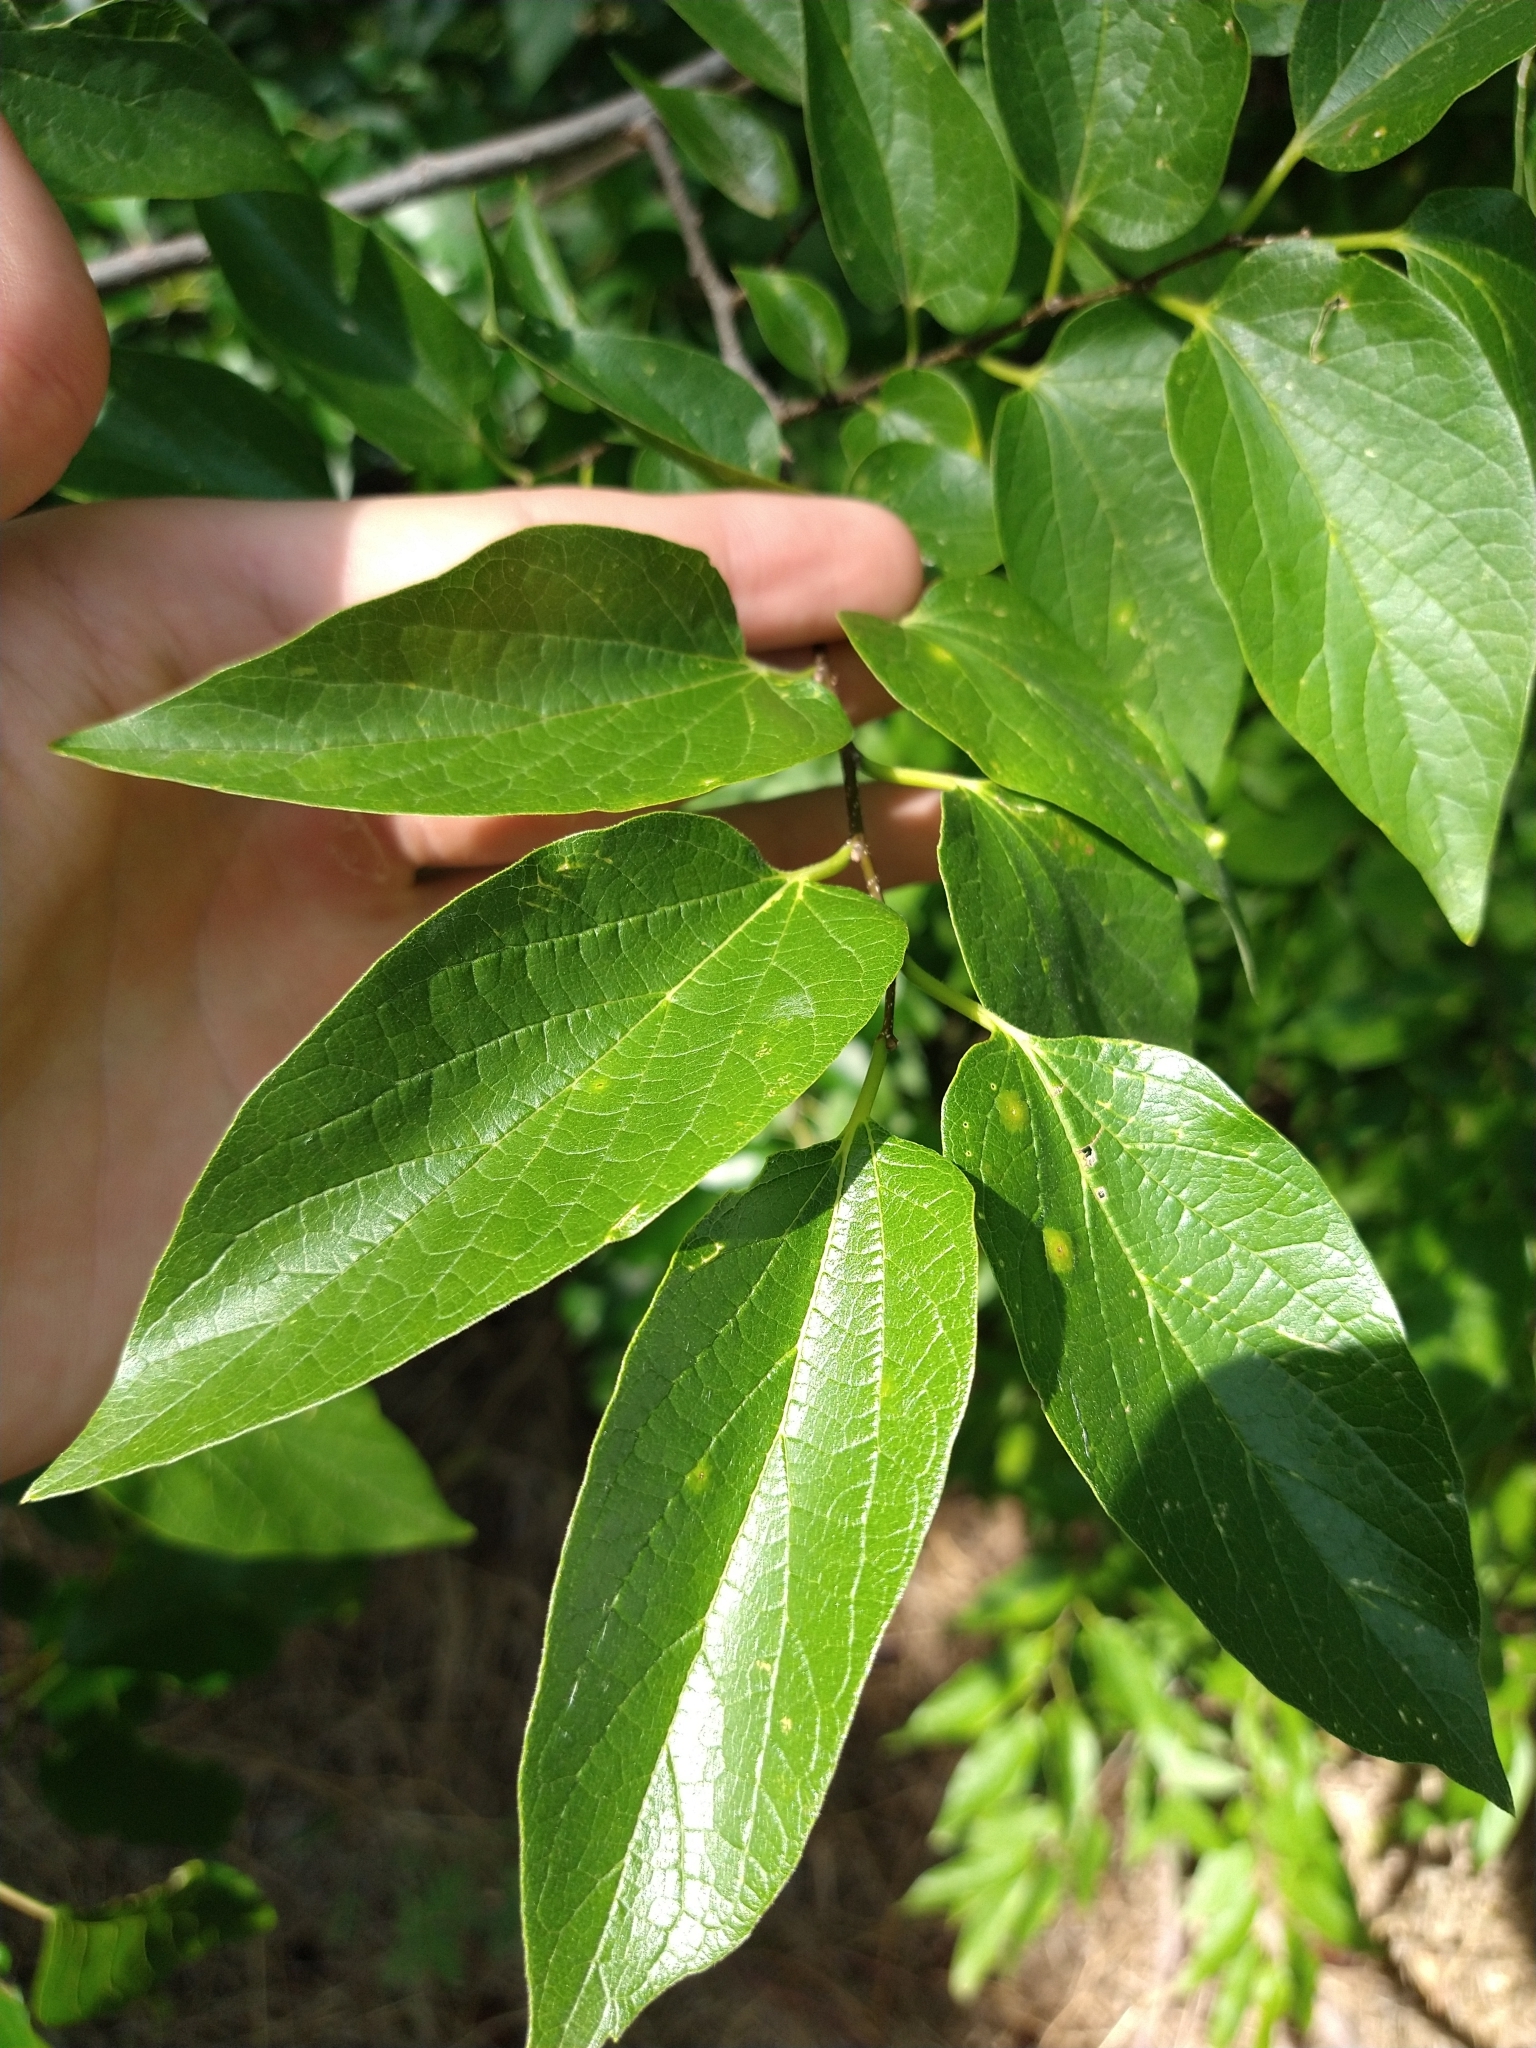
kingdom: Plantae
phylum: Tracheophyta
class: Magnoliopsida
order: Rosales
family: Cannabaceae
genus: Celtis
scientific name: Celtis laevigata
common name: Sugarberry
